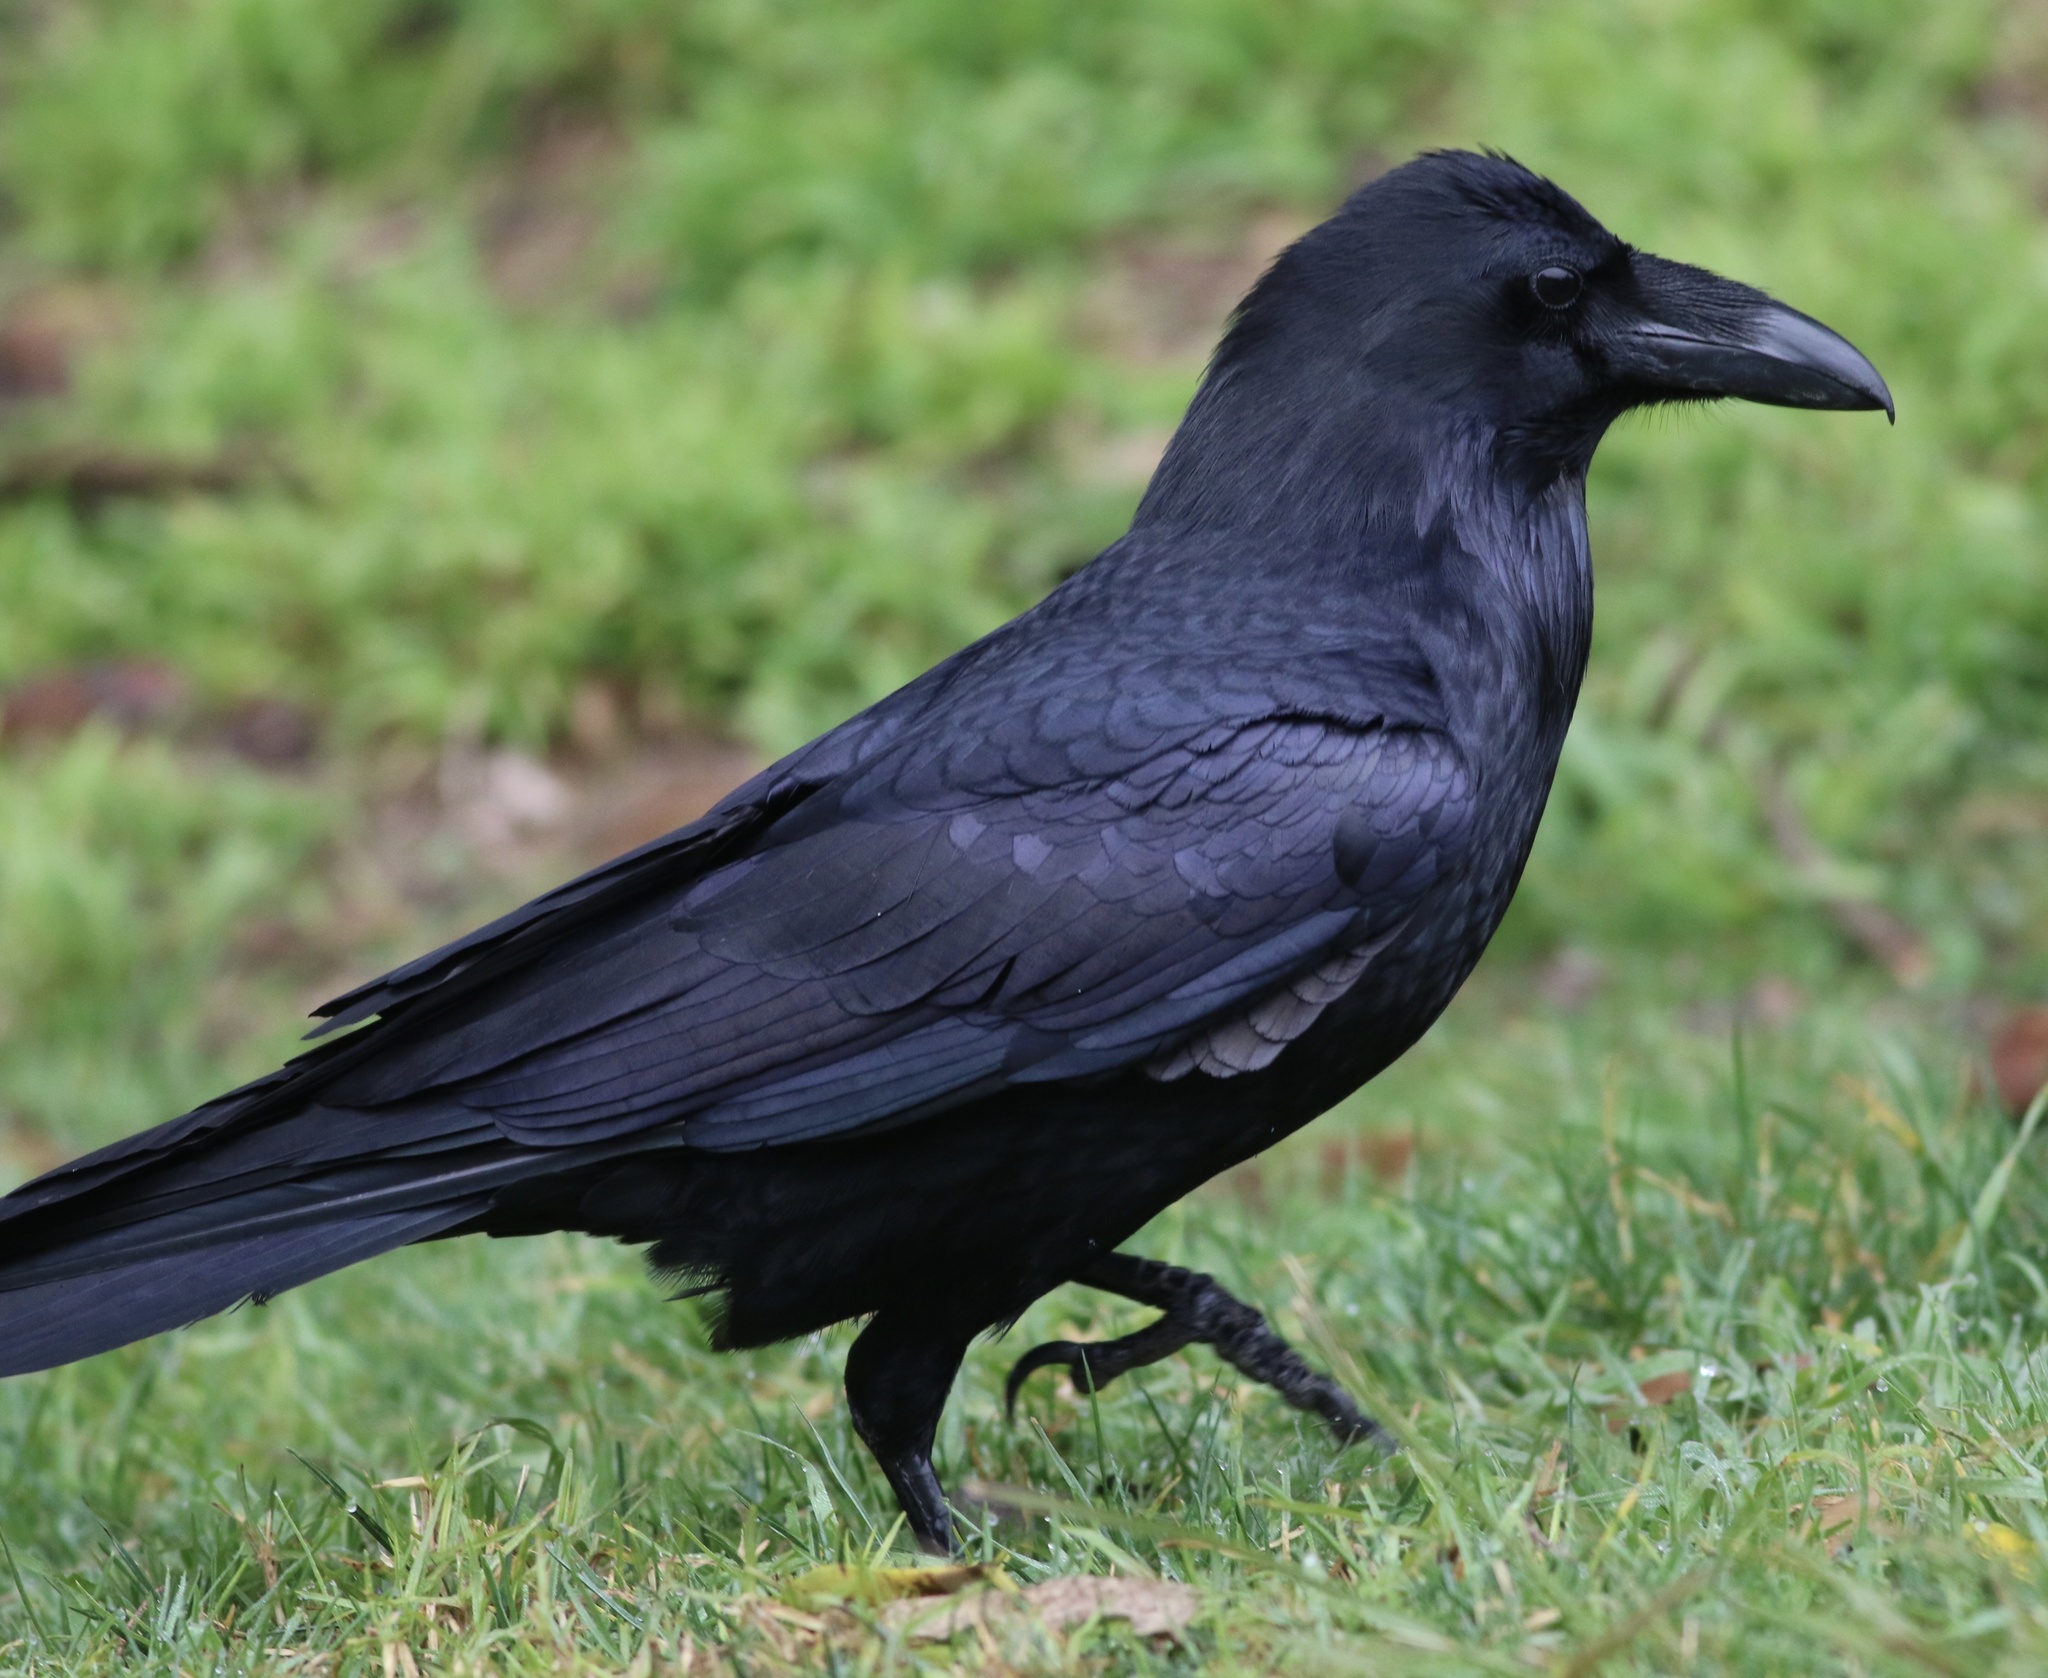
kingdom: Animalia
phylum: Chordata
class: Aves
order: Passeriformes
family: Corvidae
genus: Corvus
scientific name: Corvus corax
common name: Common raven
